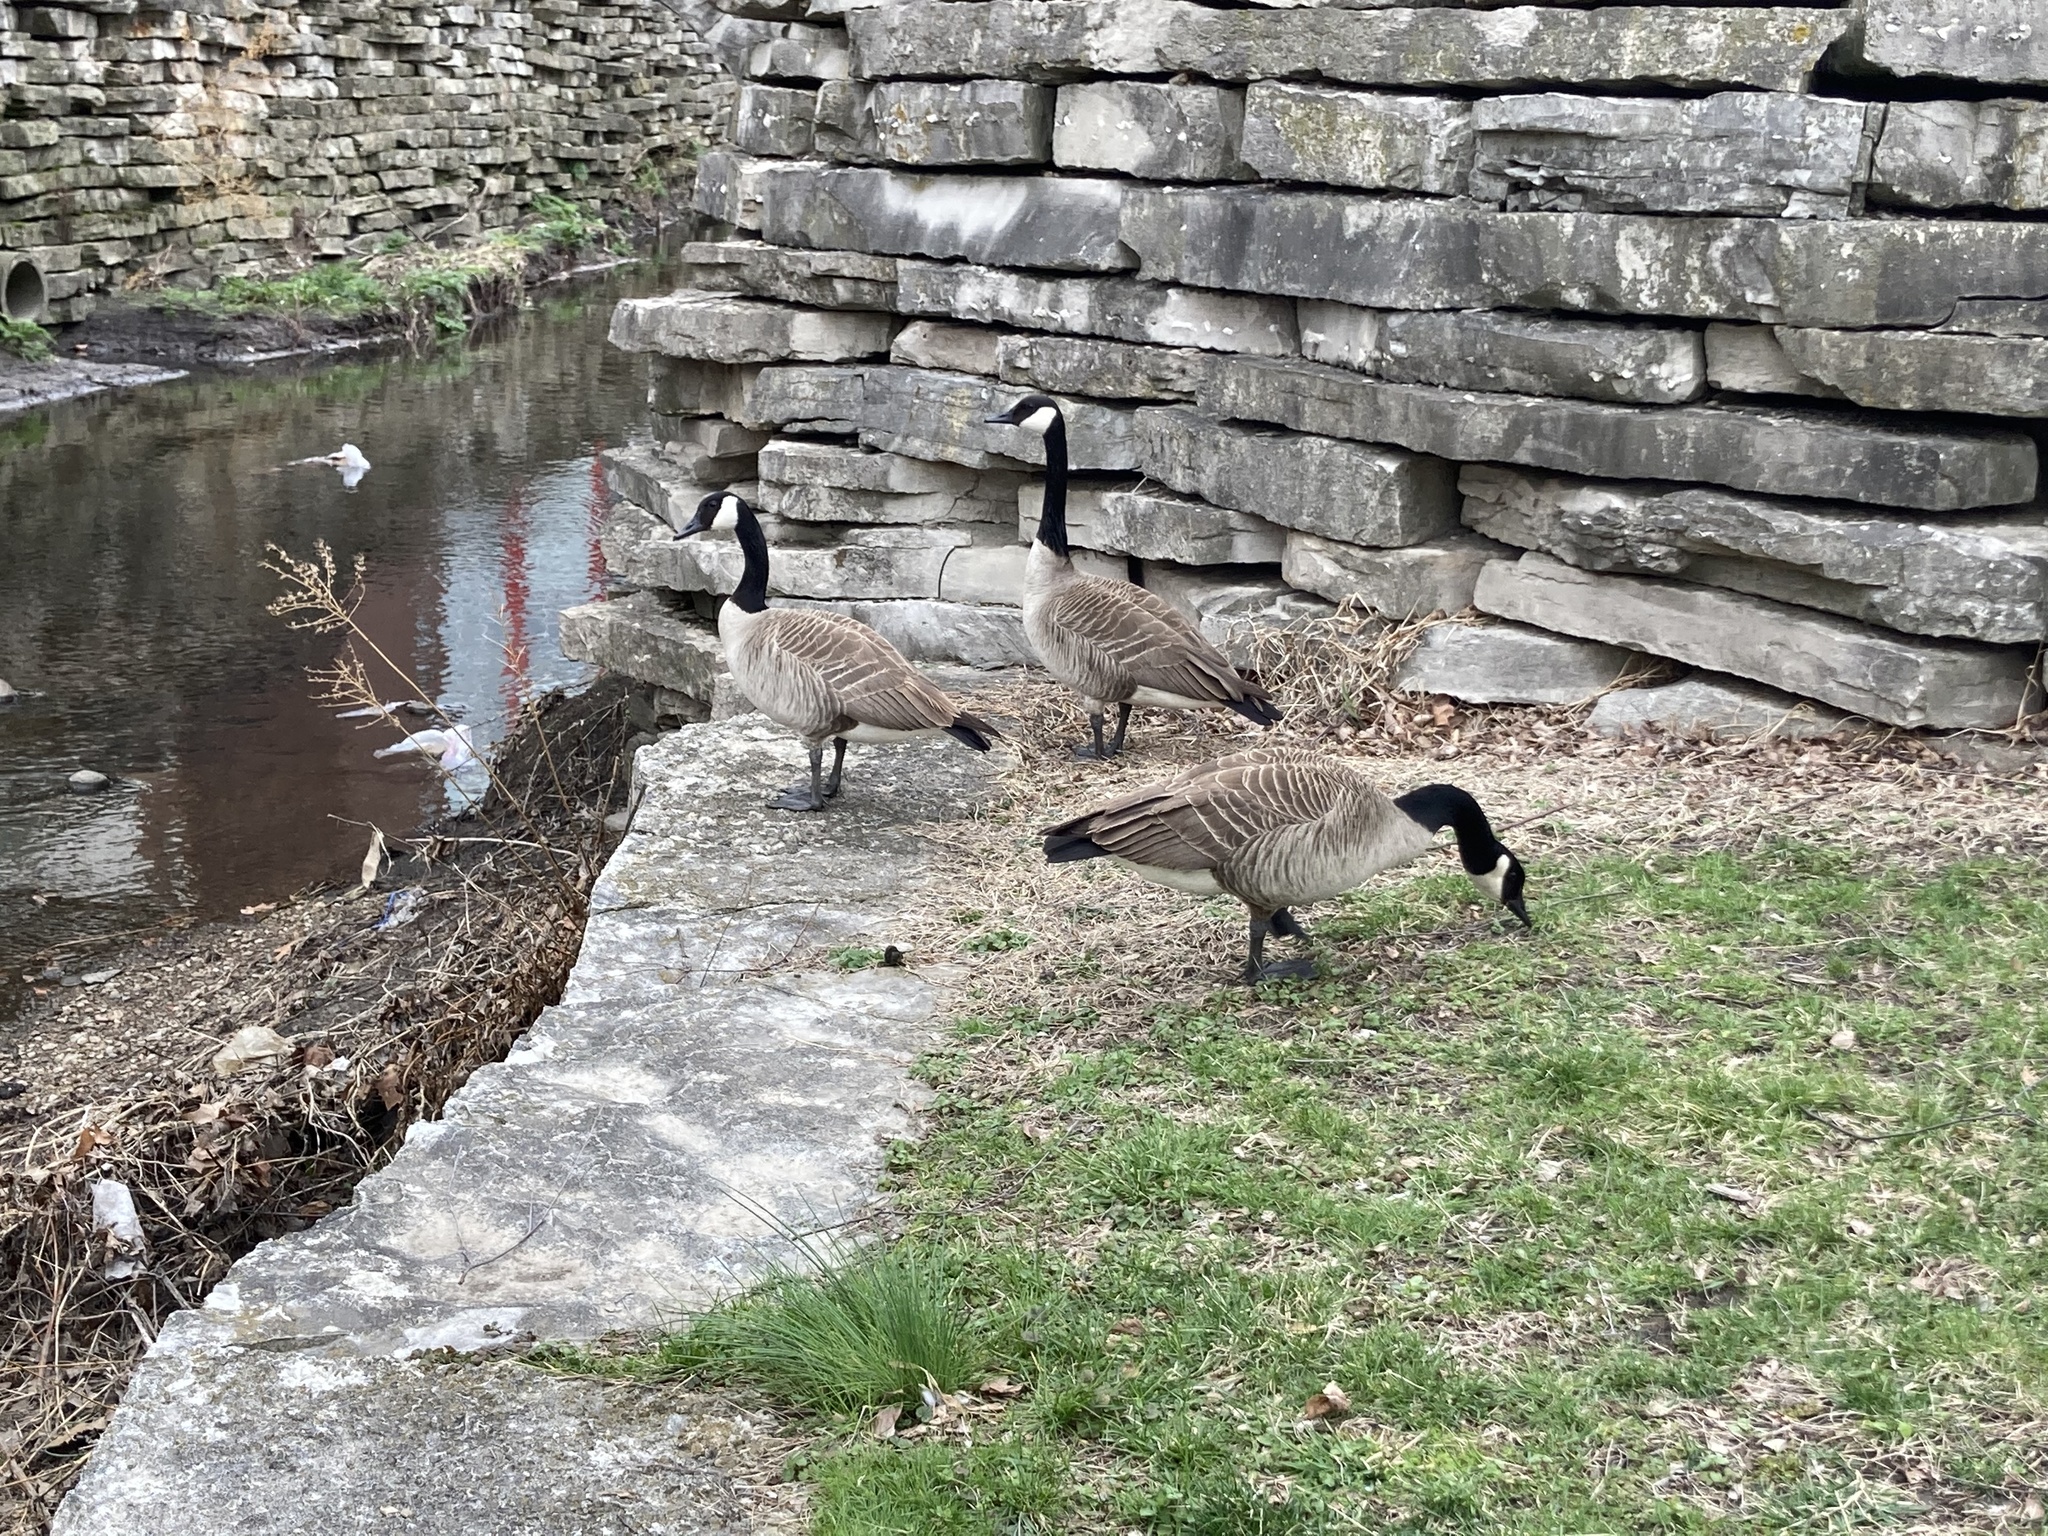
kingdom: Animalia
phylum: Chordata
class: Aves
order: Anseriformes
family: Anatidae
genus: Branta
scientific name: Branta canadensis
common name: Canada goose
